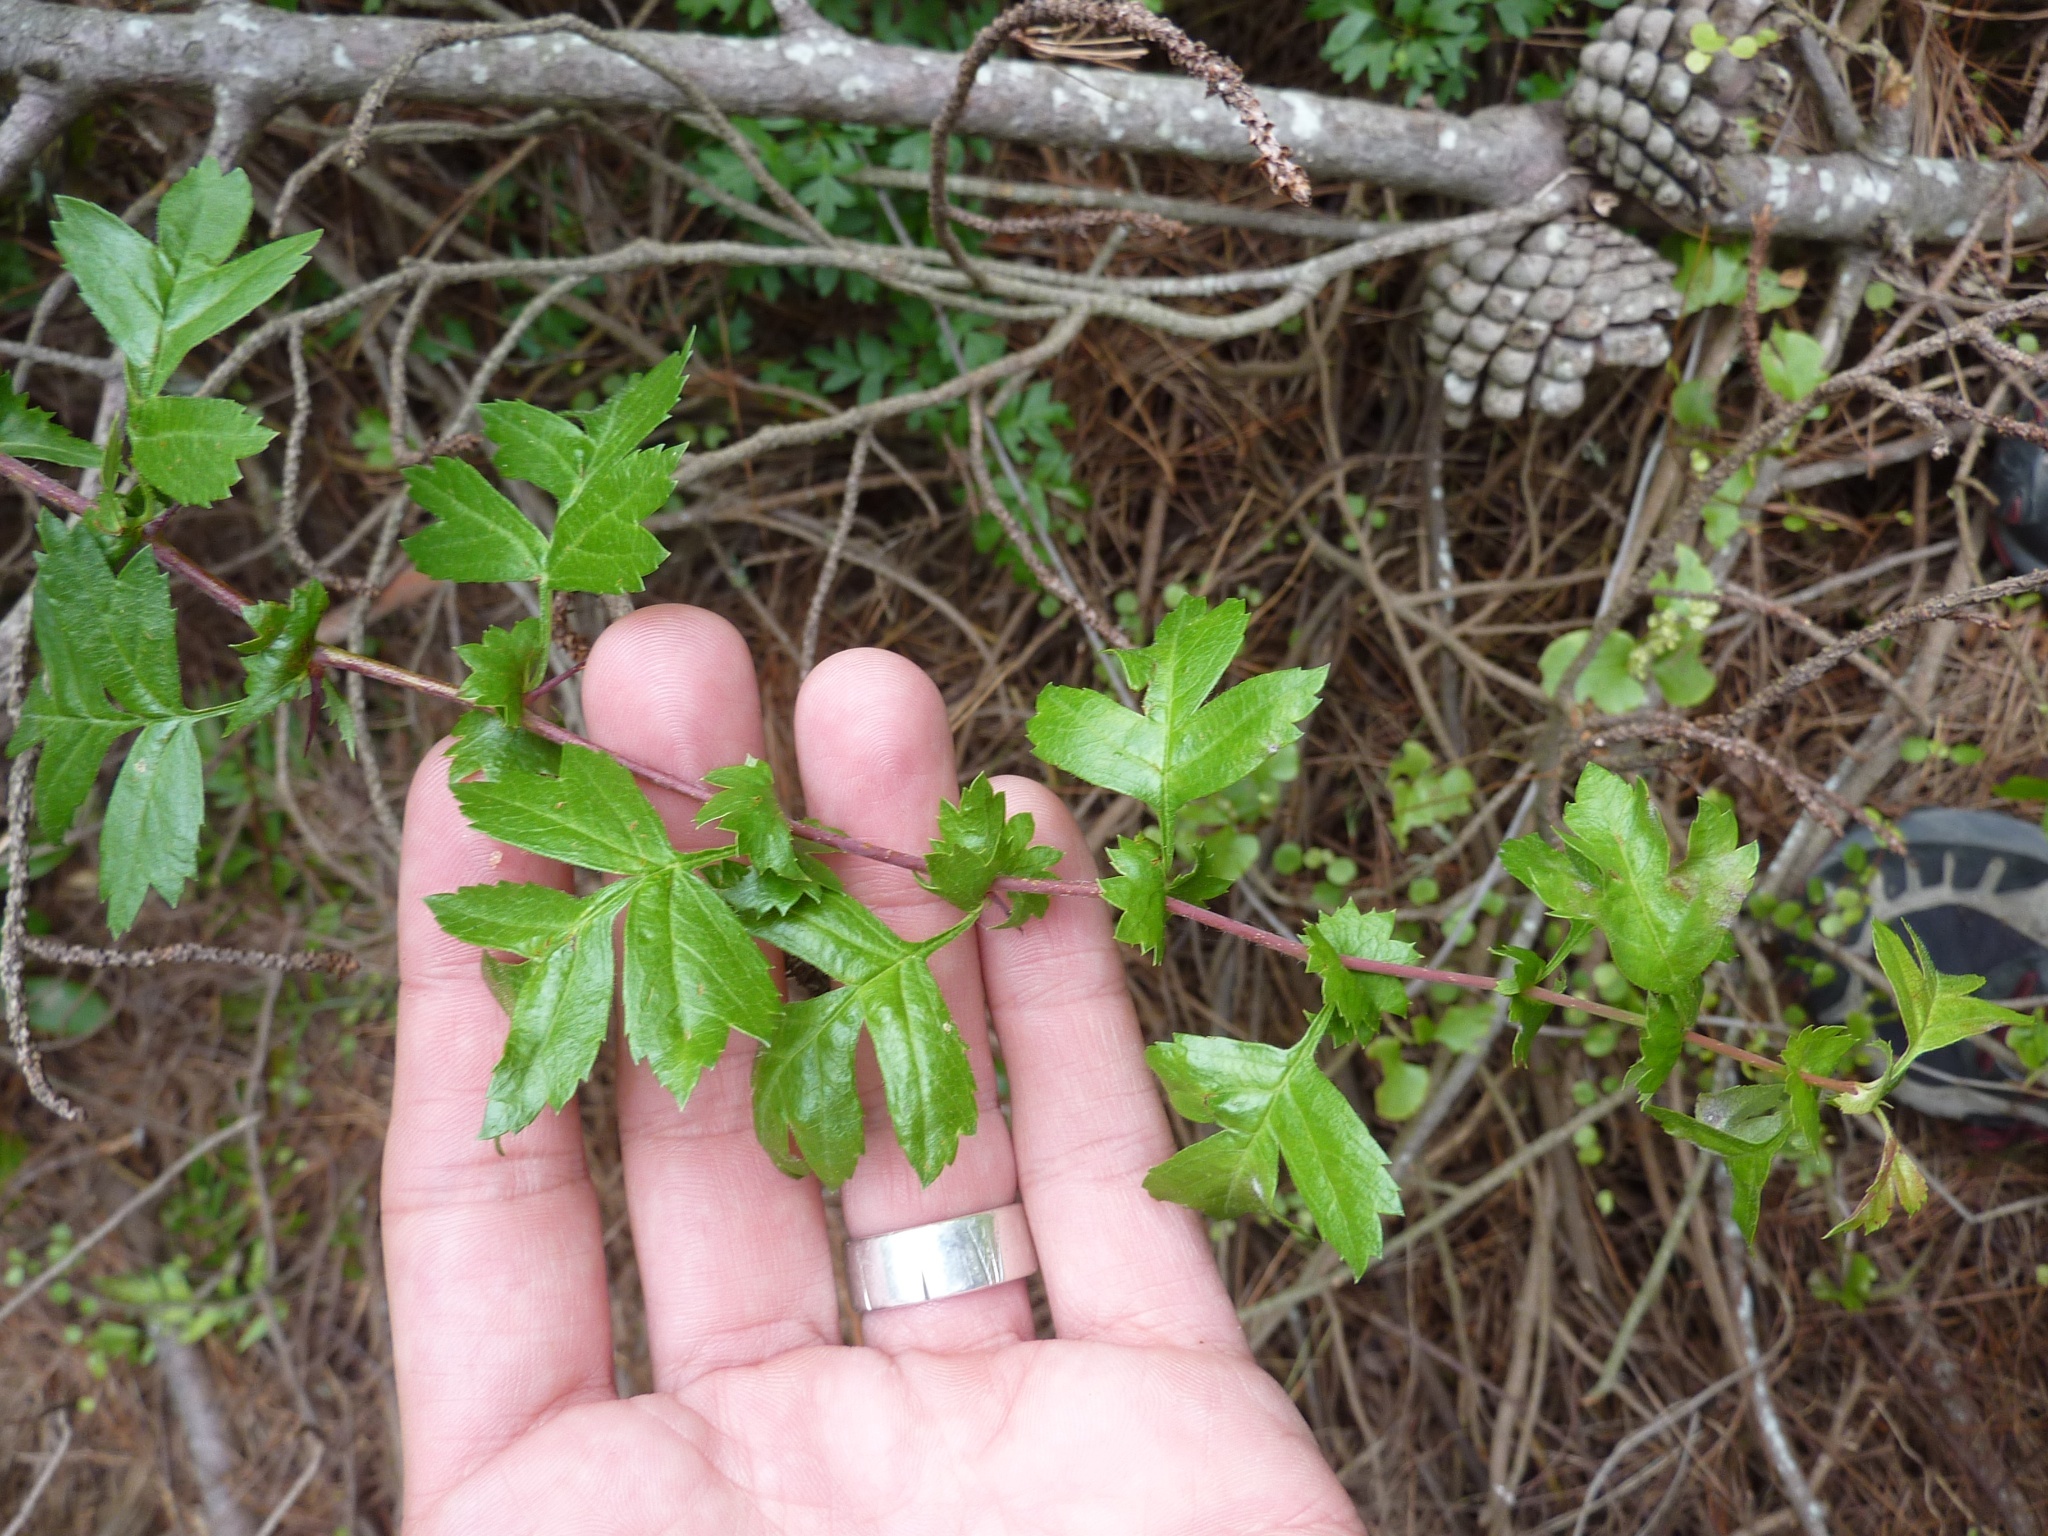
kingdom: Plantae
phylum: Tracheophyta
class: Magnoliopsida
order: Rosales
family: Rosaceae
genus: Crataegus
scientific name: Crataegus monogyna
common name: Hawthorn
